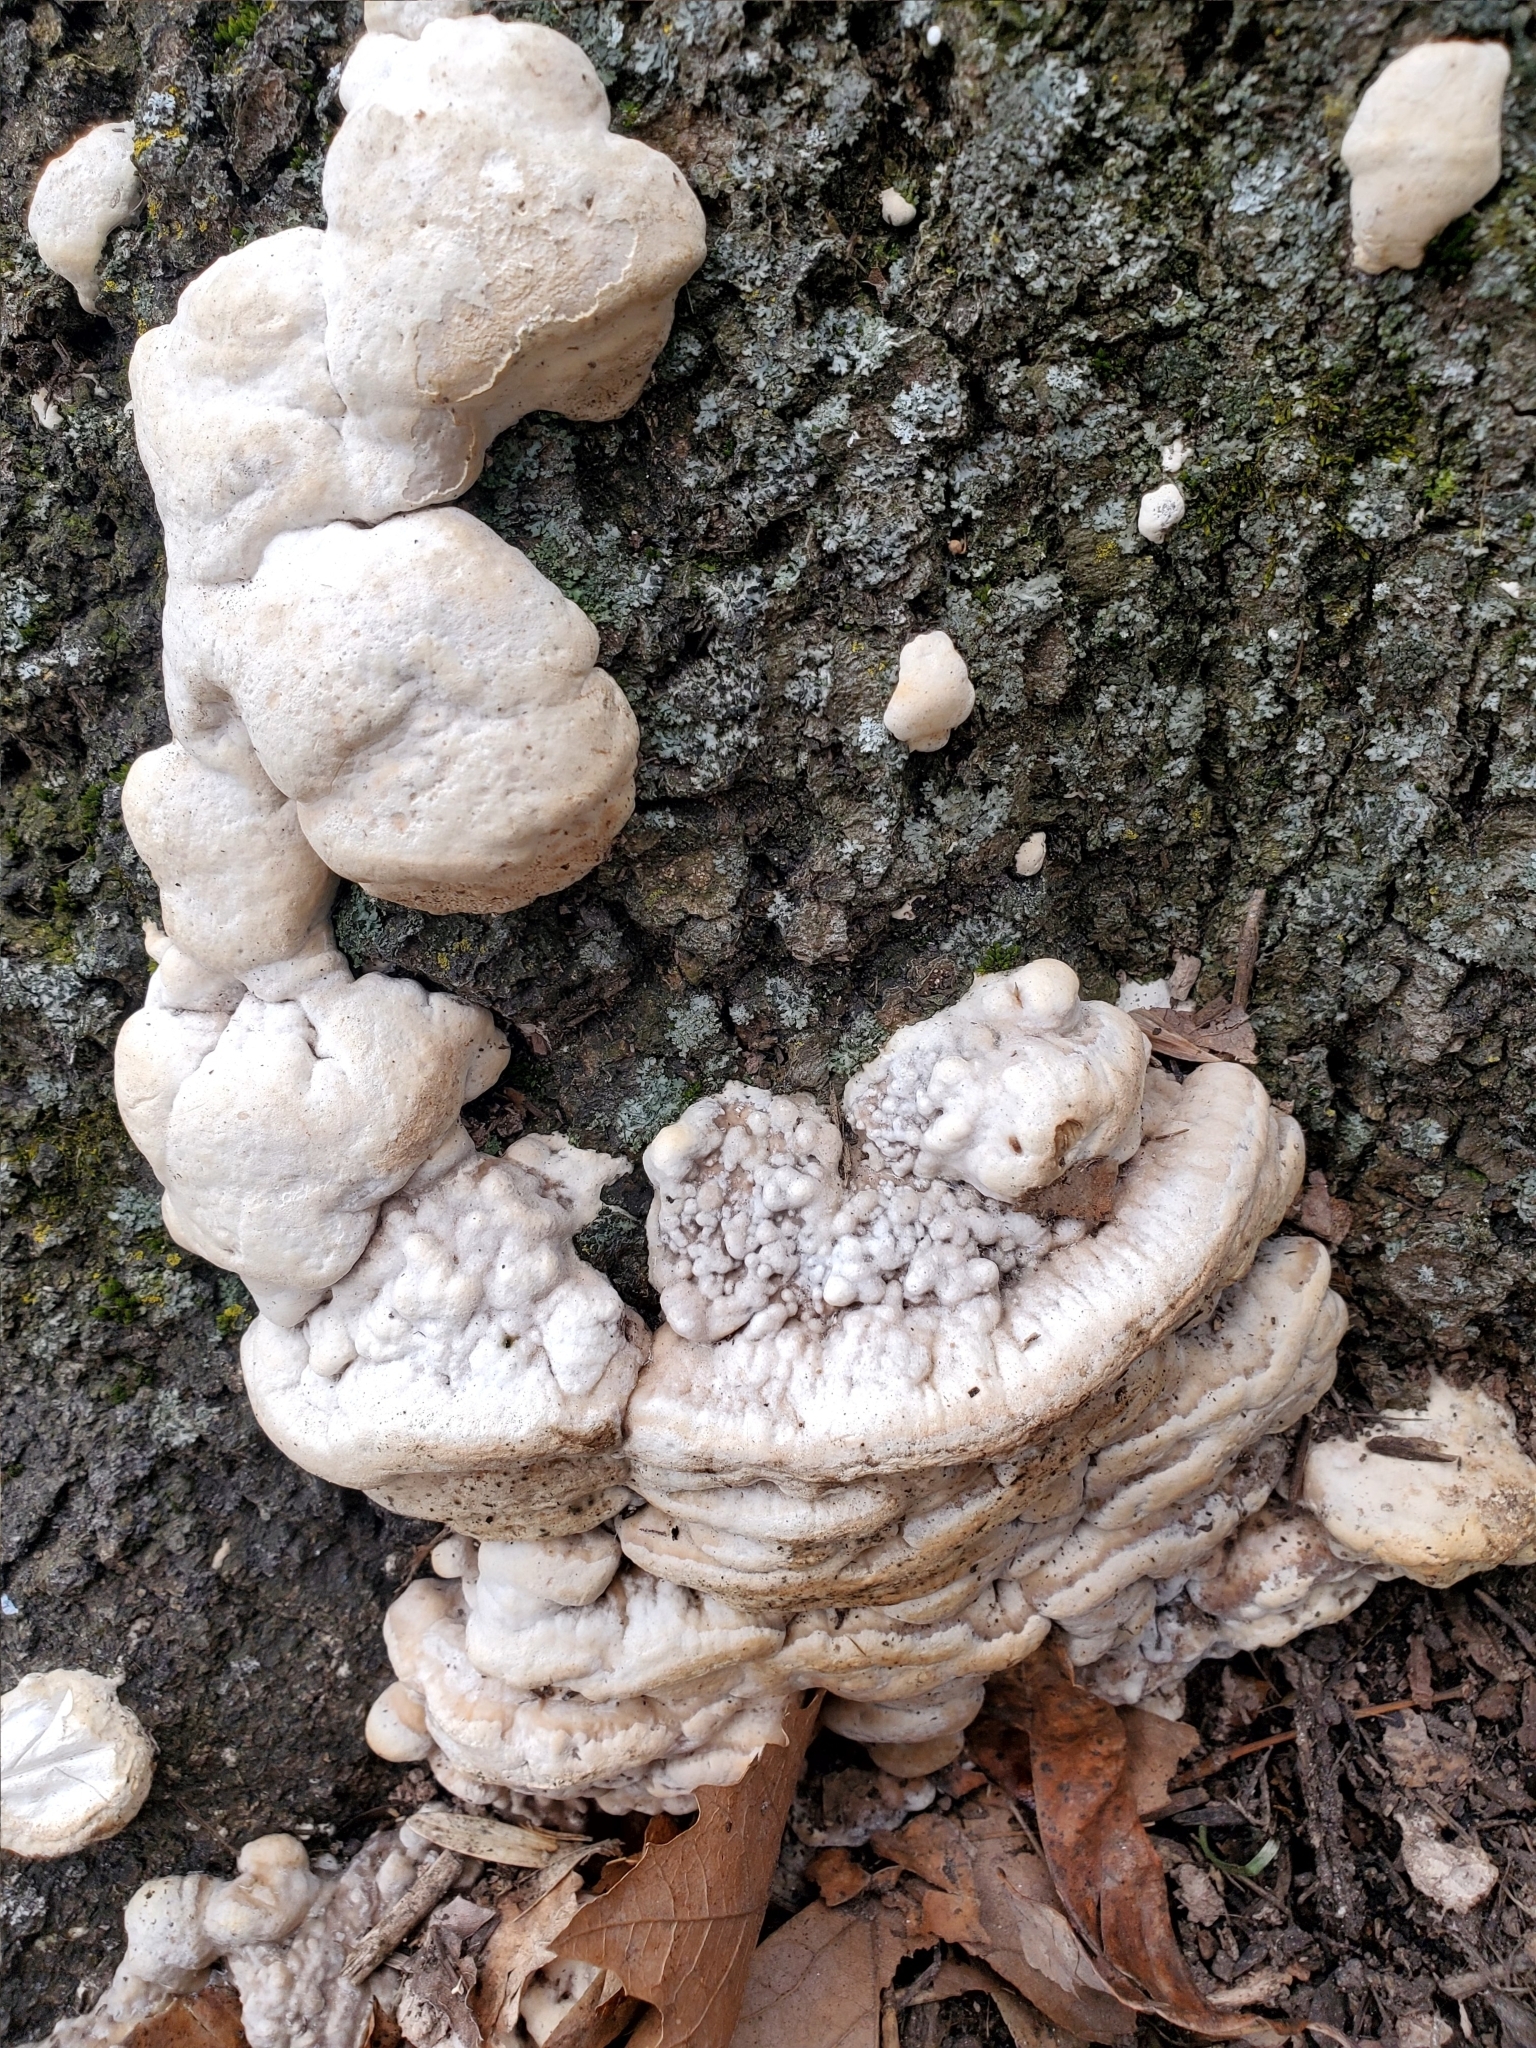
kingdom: Fungi
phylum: Basidiomycota
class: Agaricomycetes
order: Polyporales
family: Meruliaceae
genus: Irpiciporus
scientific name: Irpiciporus pachyodon
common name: Marshmallow polypore
